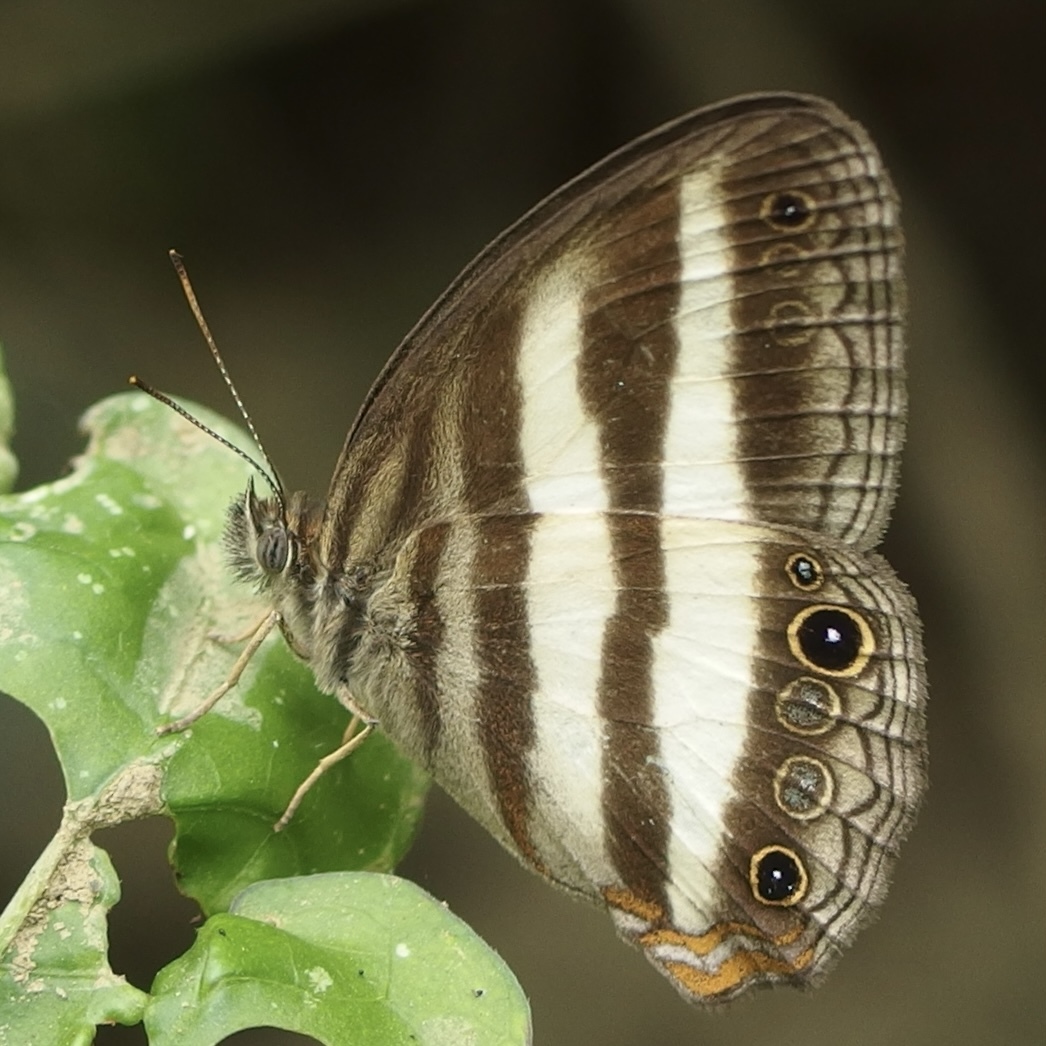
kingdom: Animalia
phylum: Arthropoda
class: Insecta
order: Lepidoptera
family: Nymphalidae
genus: Pareuptychia
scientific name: Pareuptychia hesione
